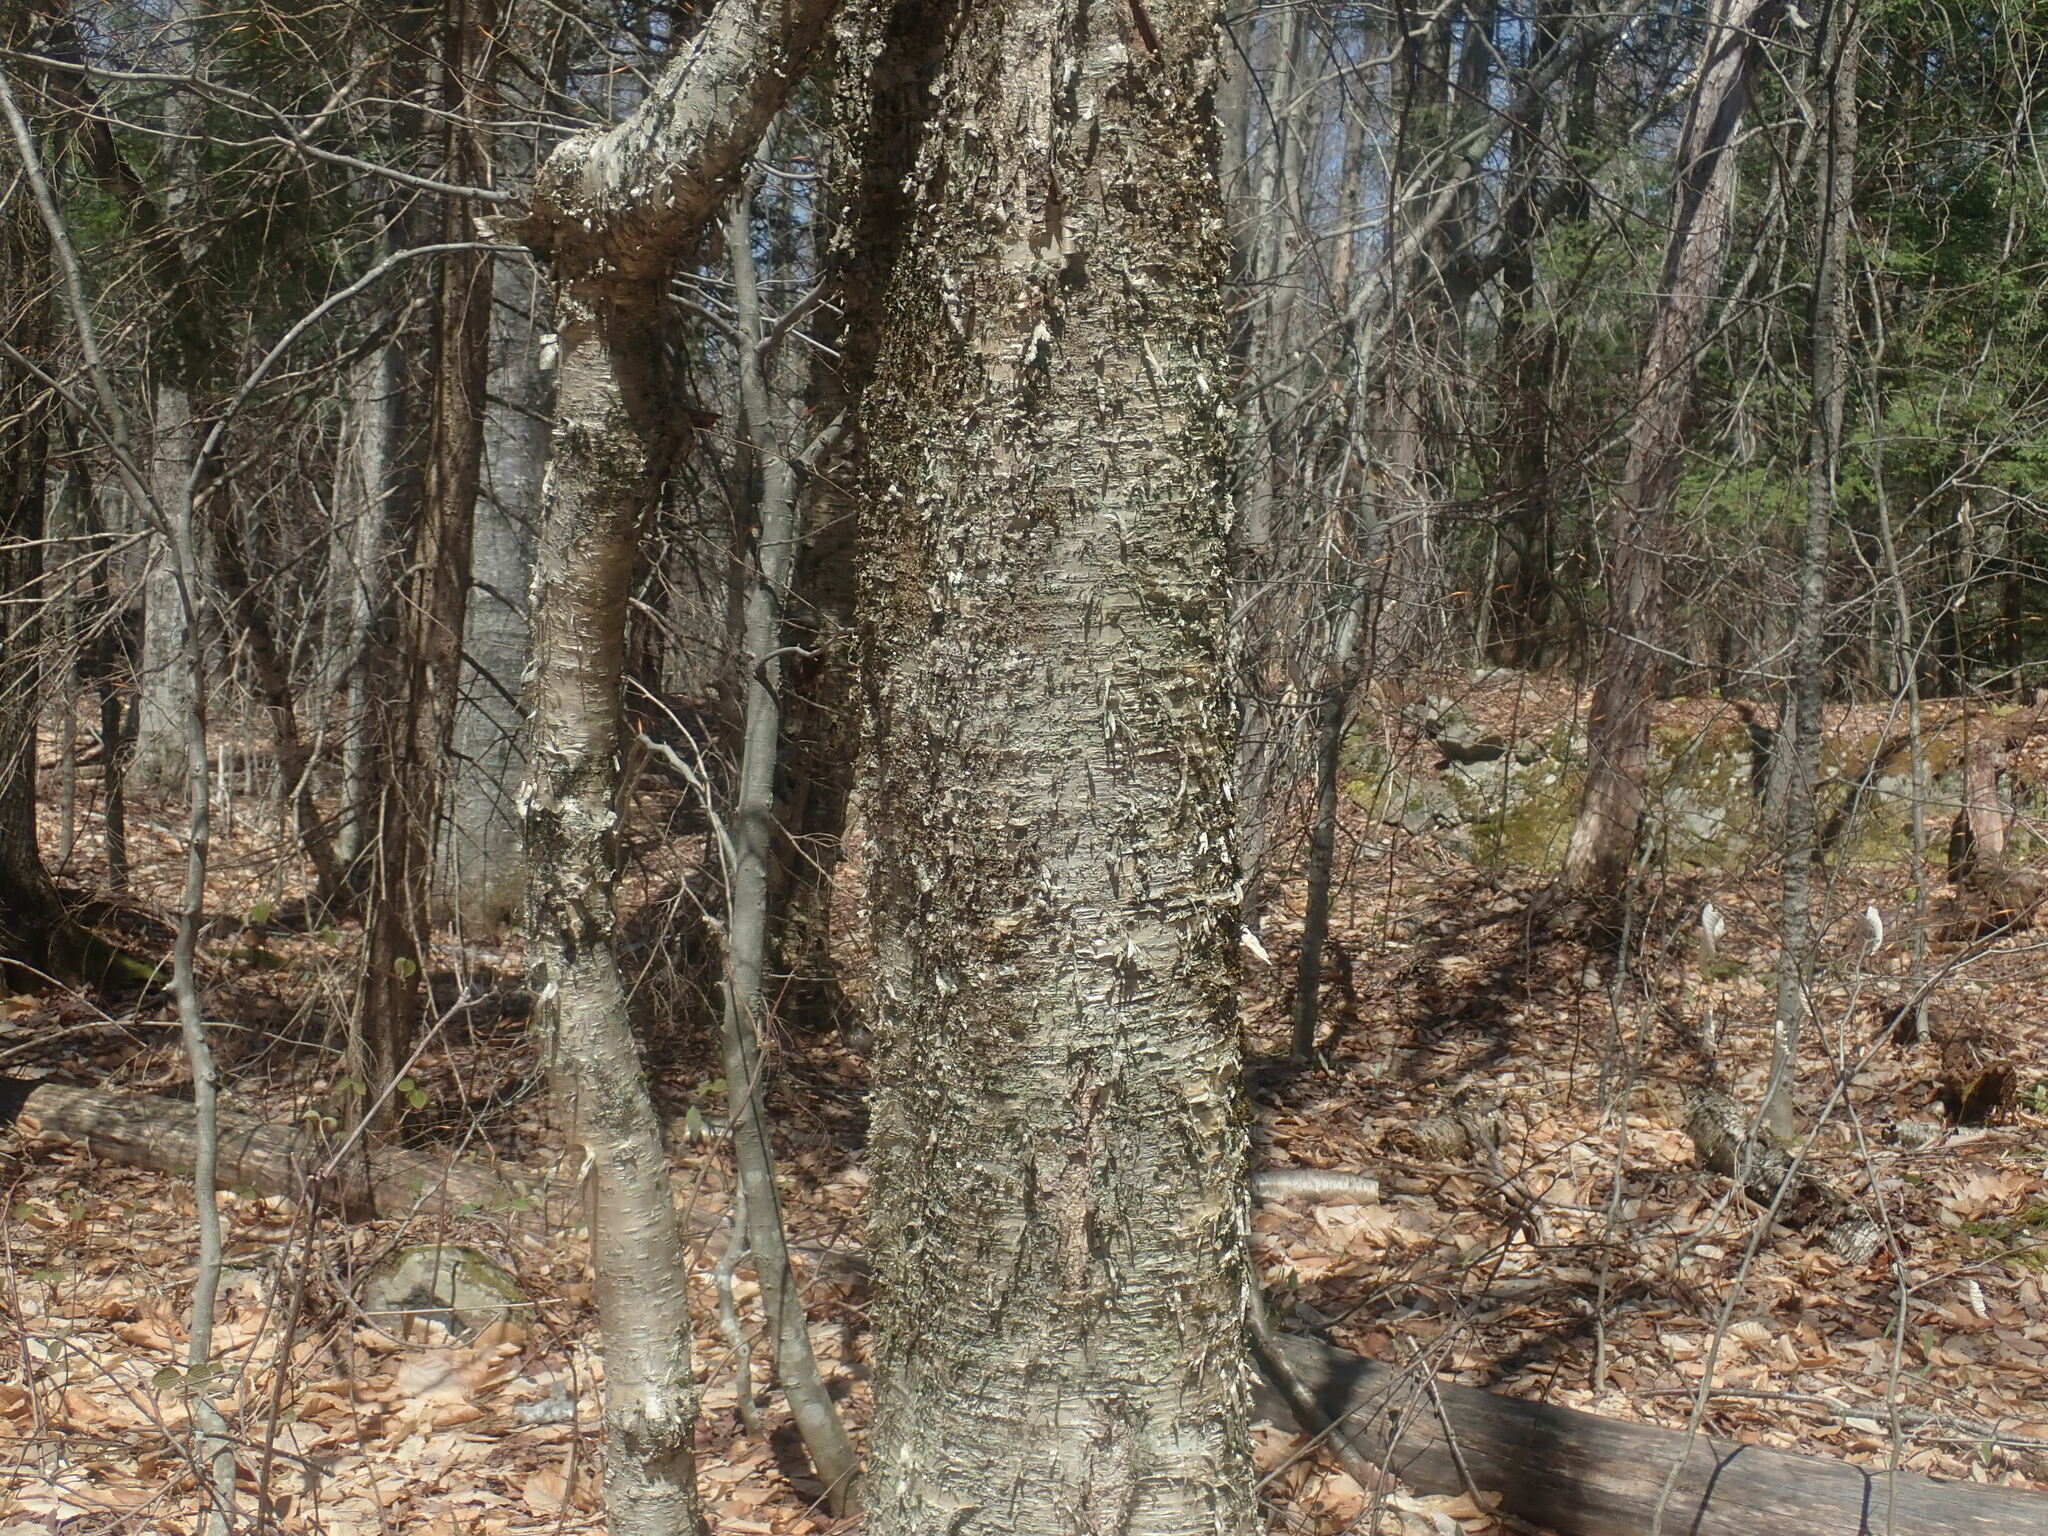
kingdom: Plantae
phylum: Tracheophyta
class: Magnoliopsida
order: Fagales
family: Betulaceae
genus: Betula
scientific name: Betula alleghaniensis
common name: Yellow birch
